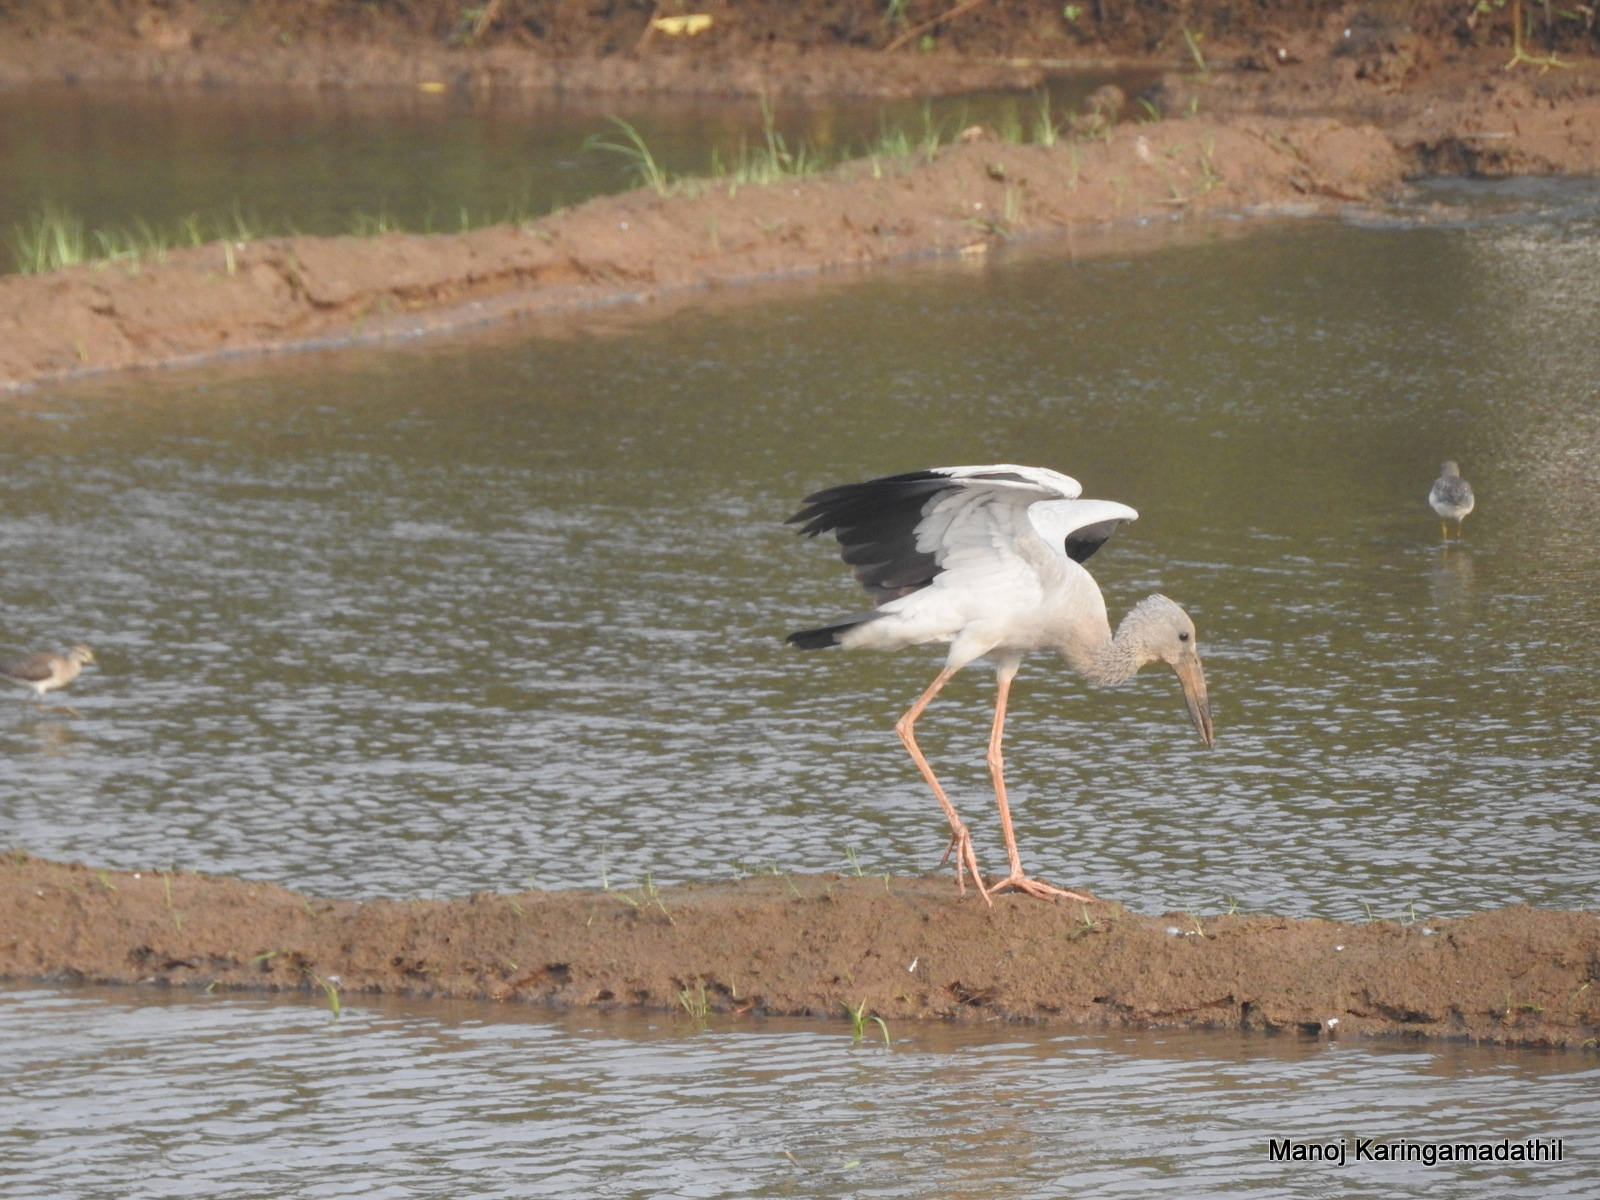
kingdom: Animalia
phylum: Chordata
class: Aves
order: Ciconiiformes
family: Ciconiidae
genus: Anastomus
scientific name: Anastomus oscitans
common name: Asian openbill
